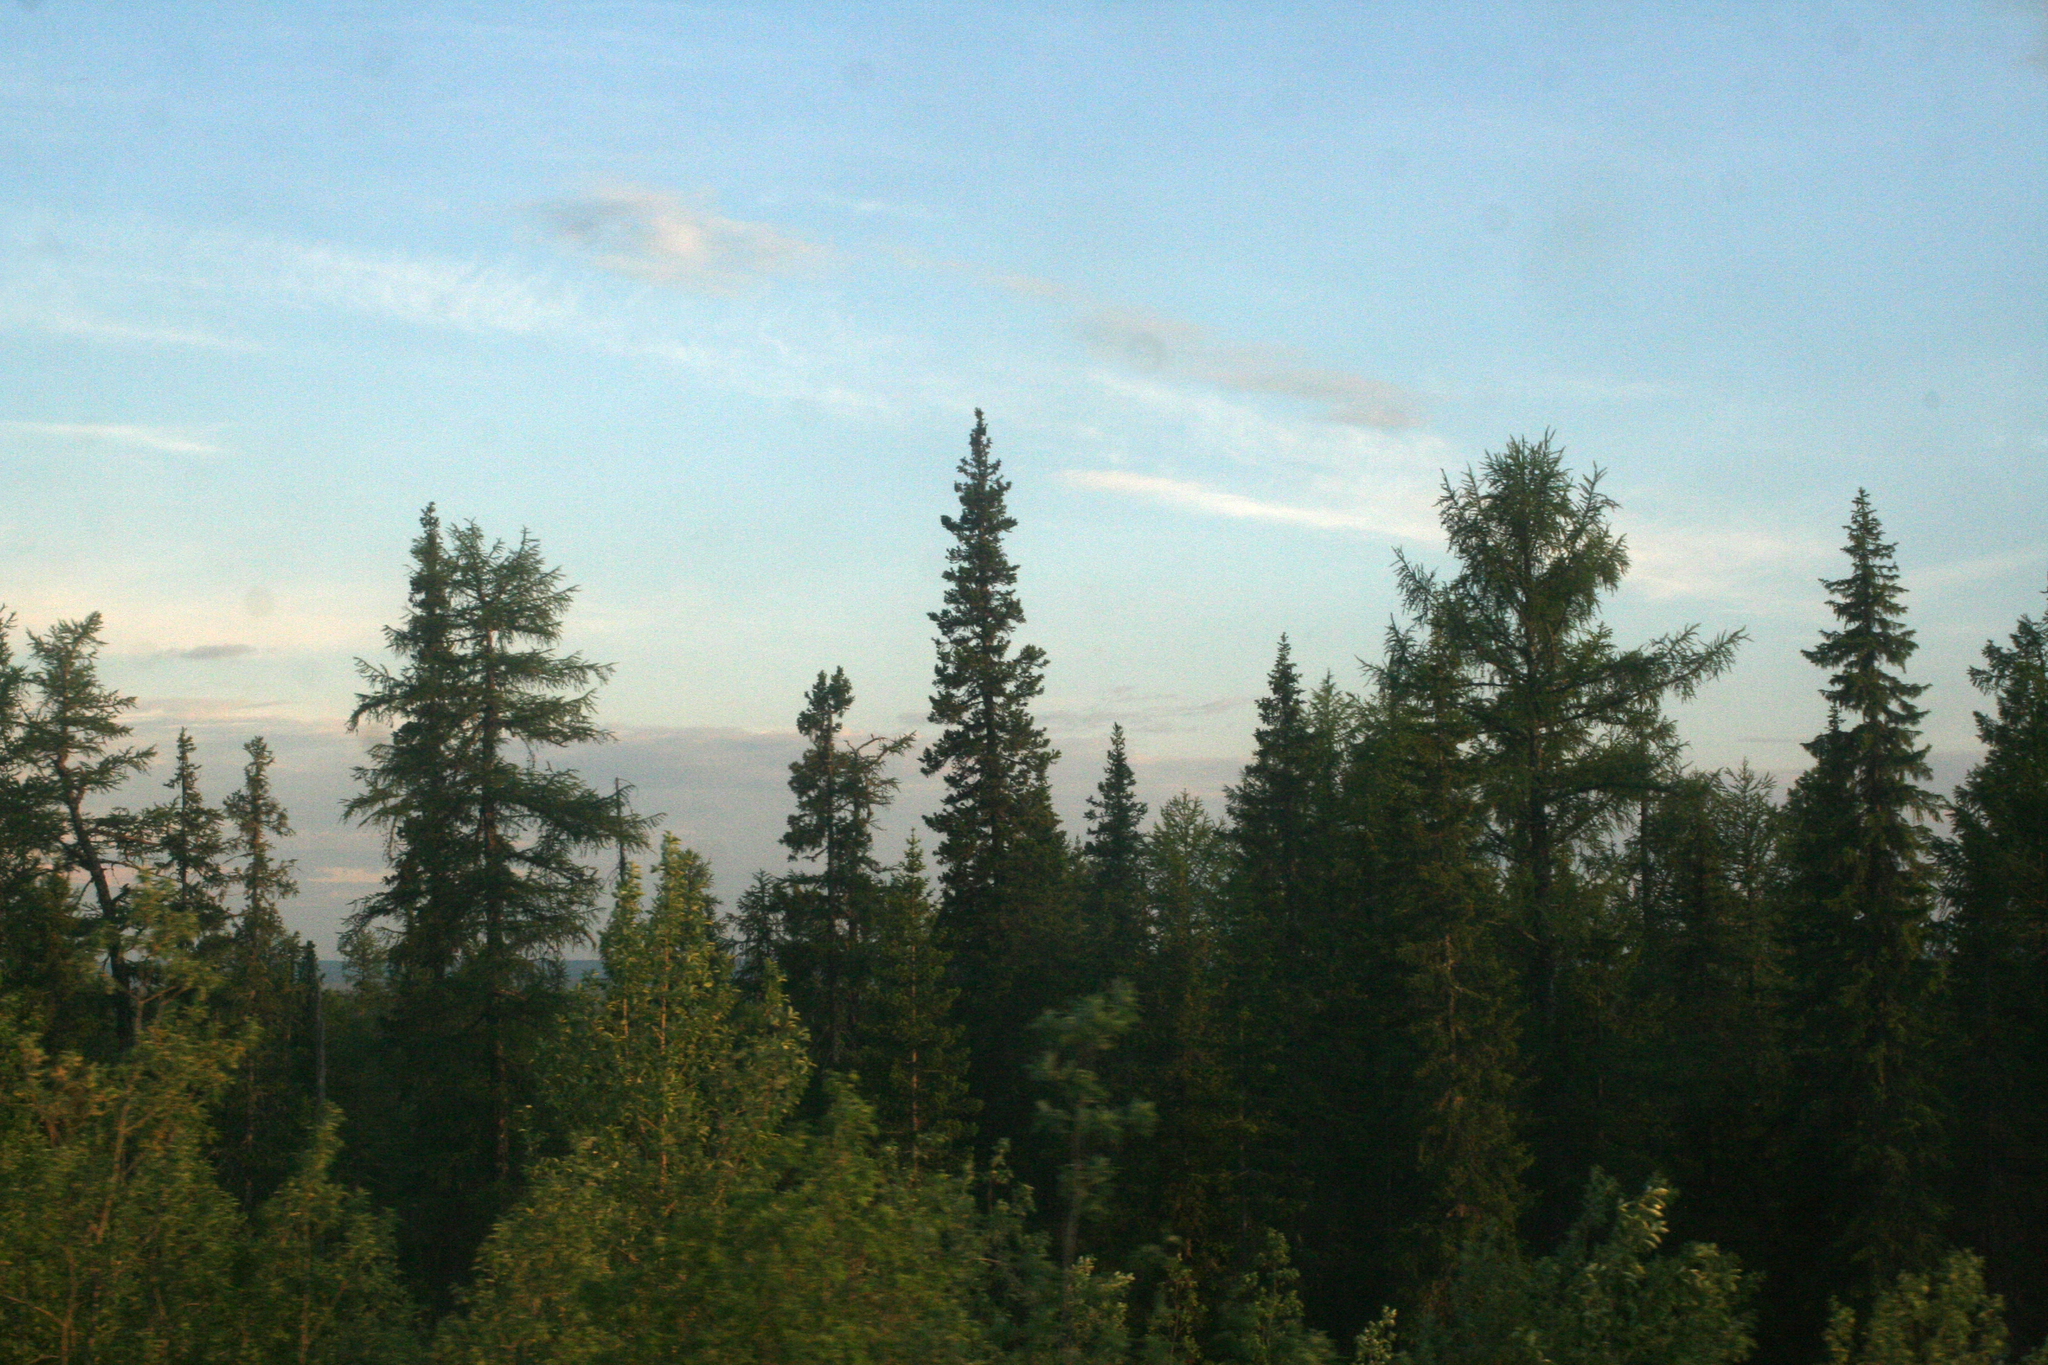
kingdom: Plantae
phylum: Tracheophyta
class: Pinopsida
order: Pinales
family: Pinaceae
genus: Picea
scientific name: Picea obovata
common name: Siberian spruce
